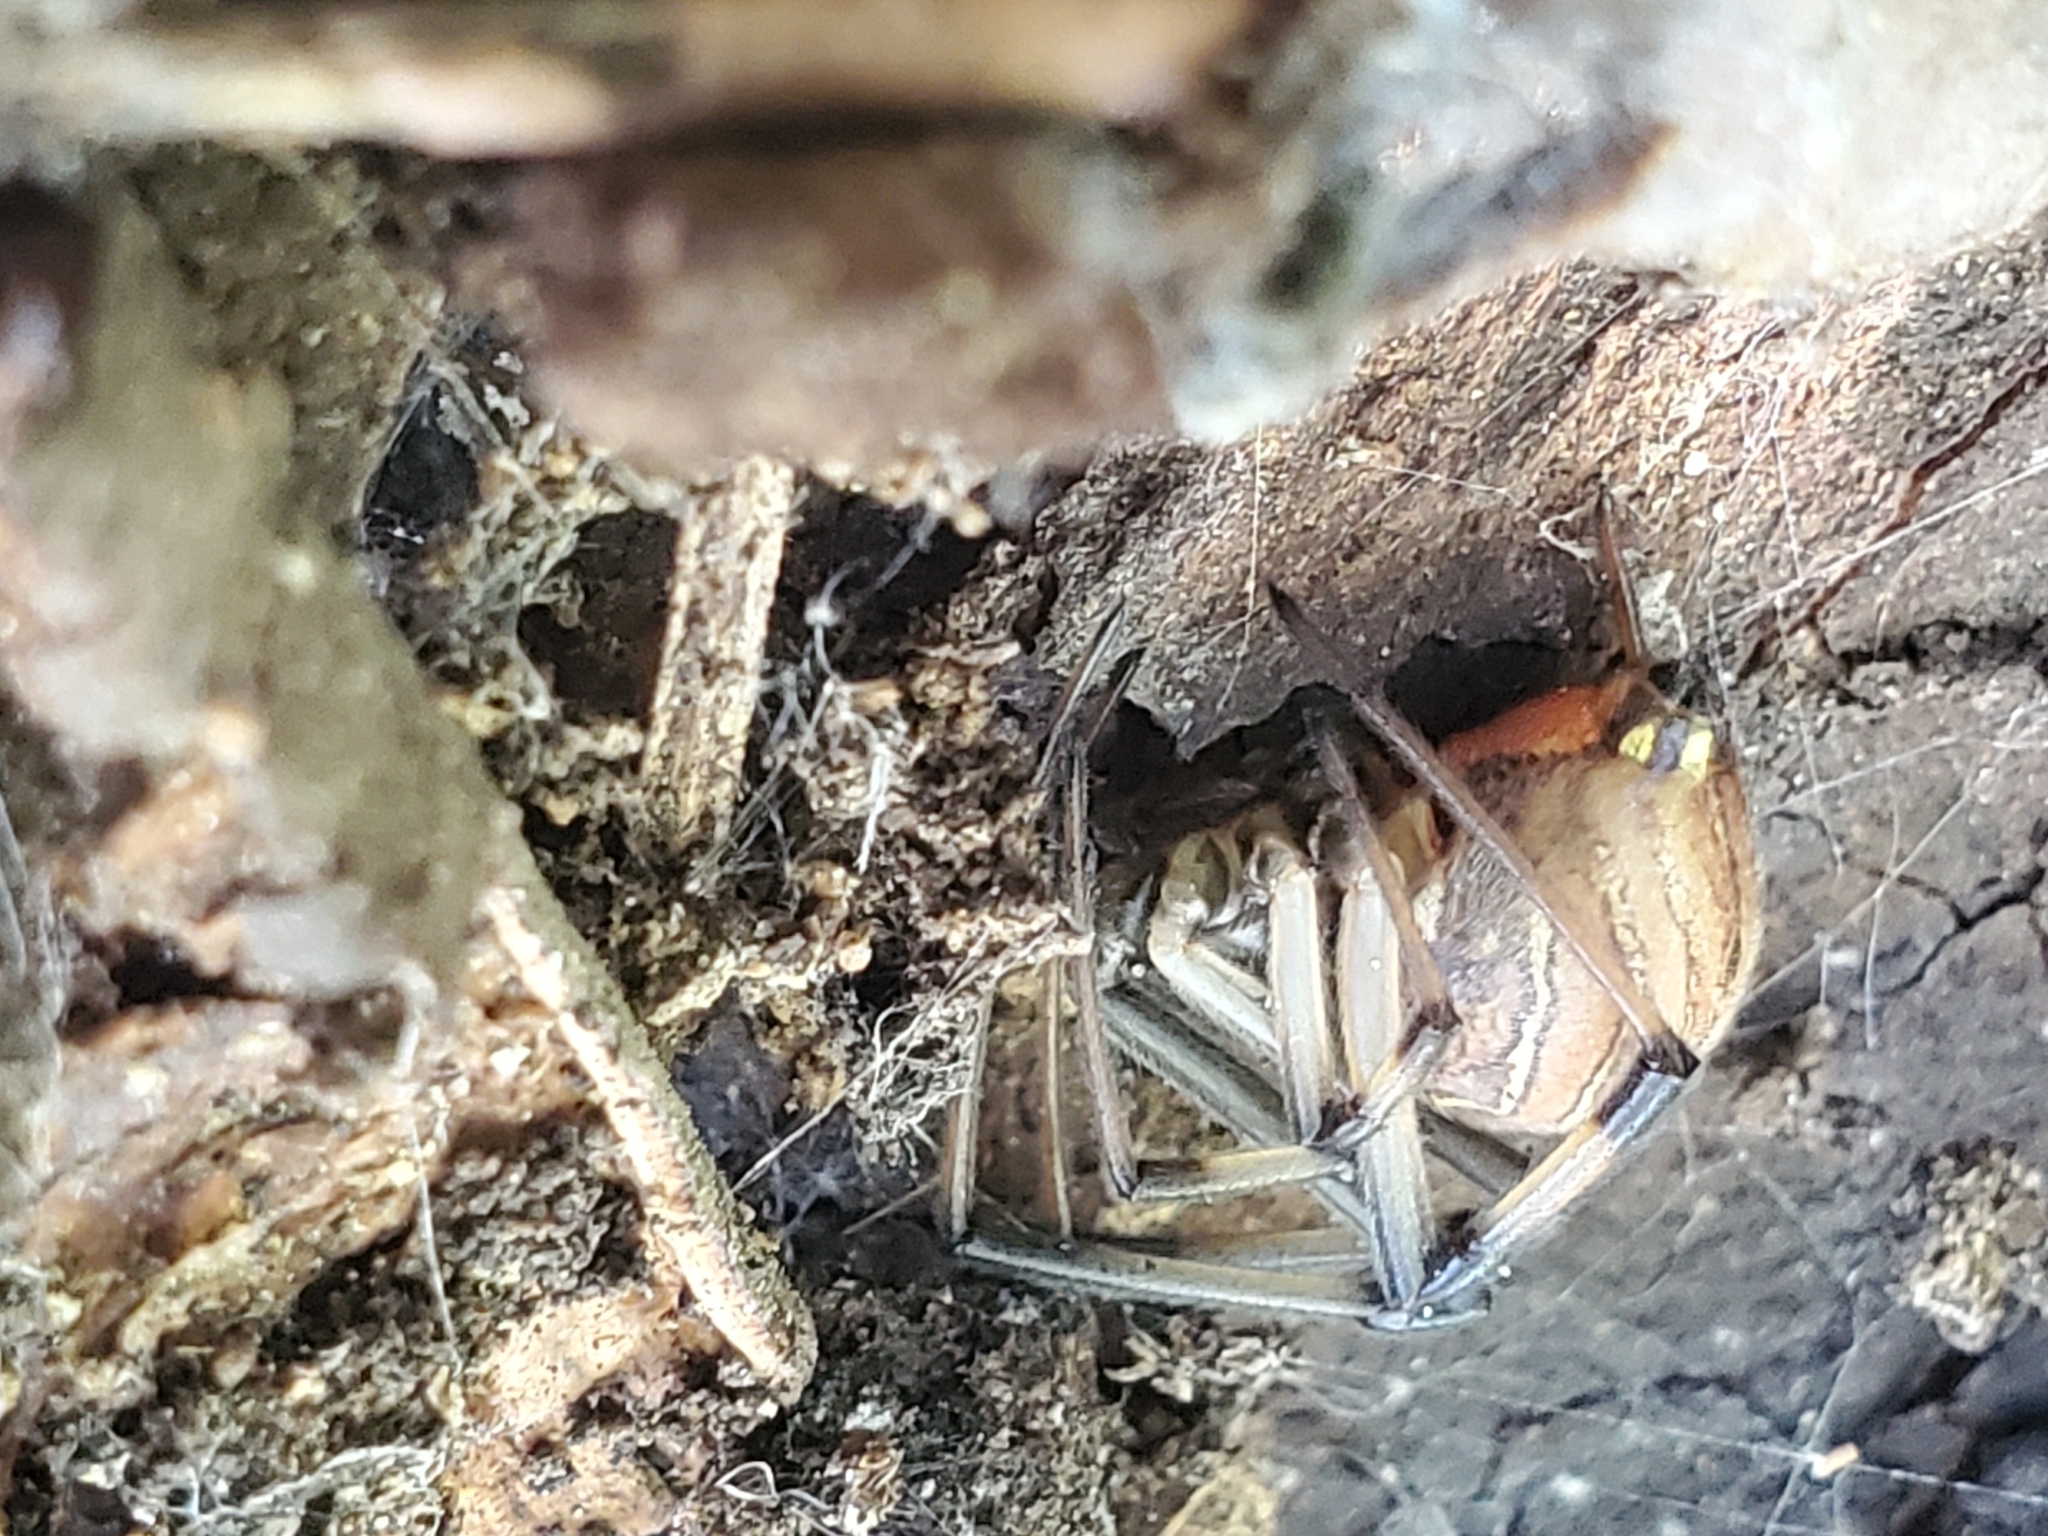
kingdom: Animalia
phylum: Arthropoda
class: Arachnida
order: Araneae
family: Theridiidae
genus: Latrodectus
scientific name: Latrodectus geometricus
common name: Brown widow spider
